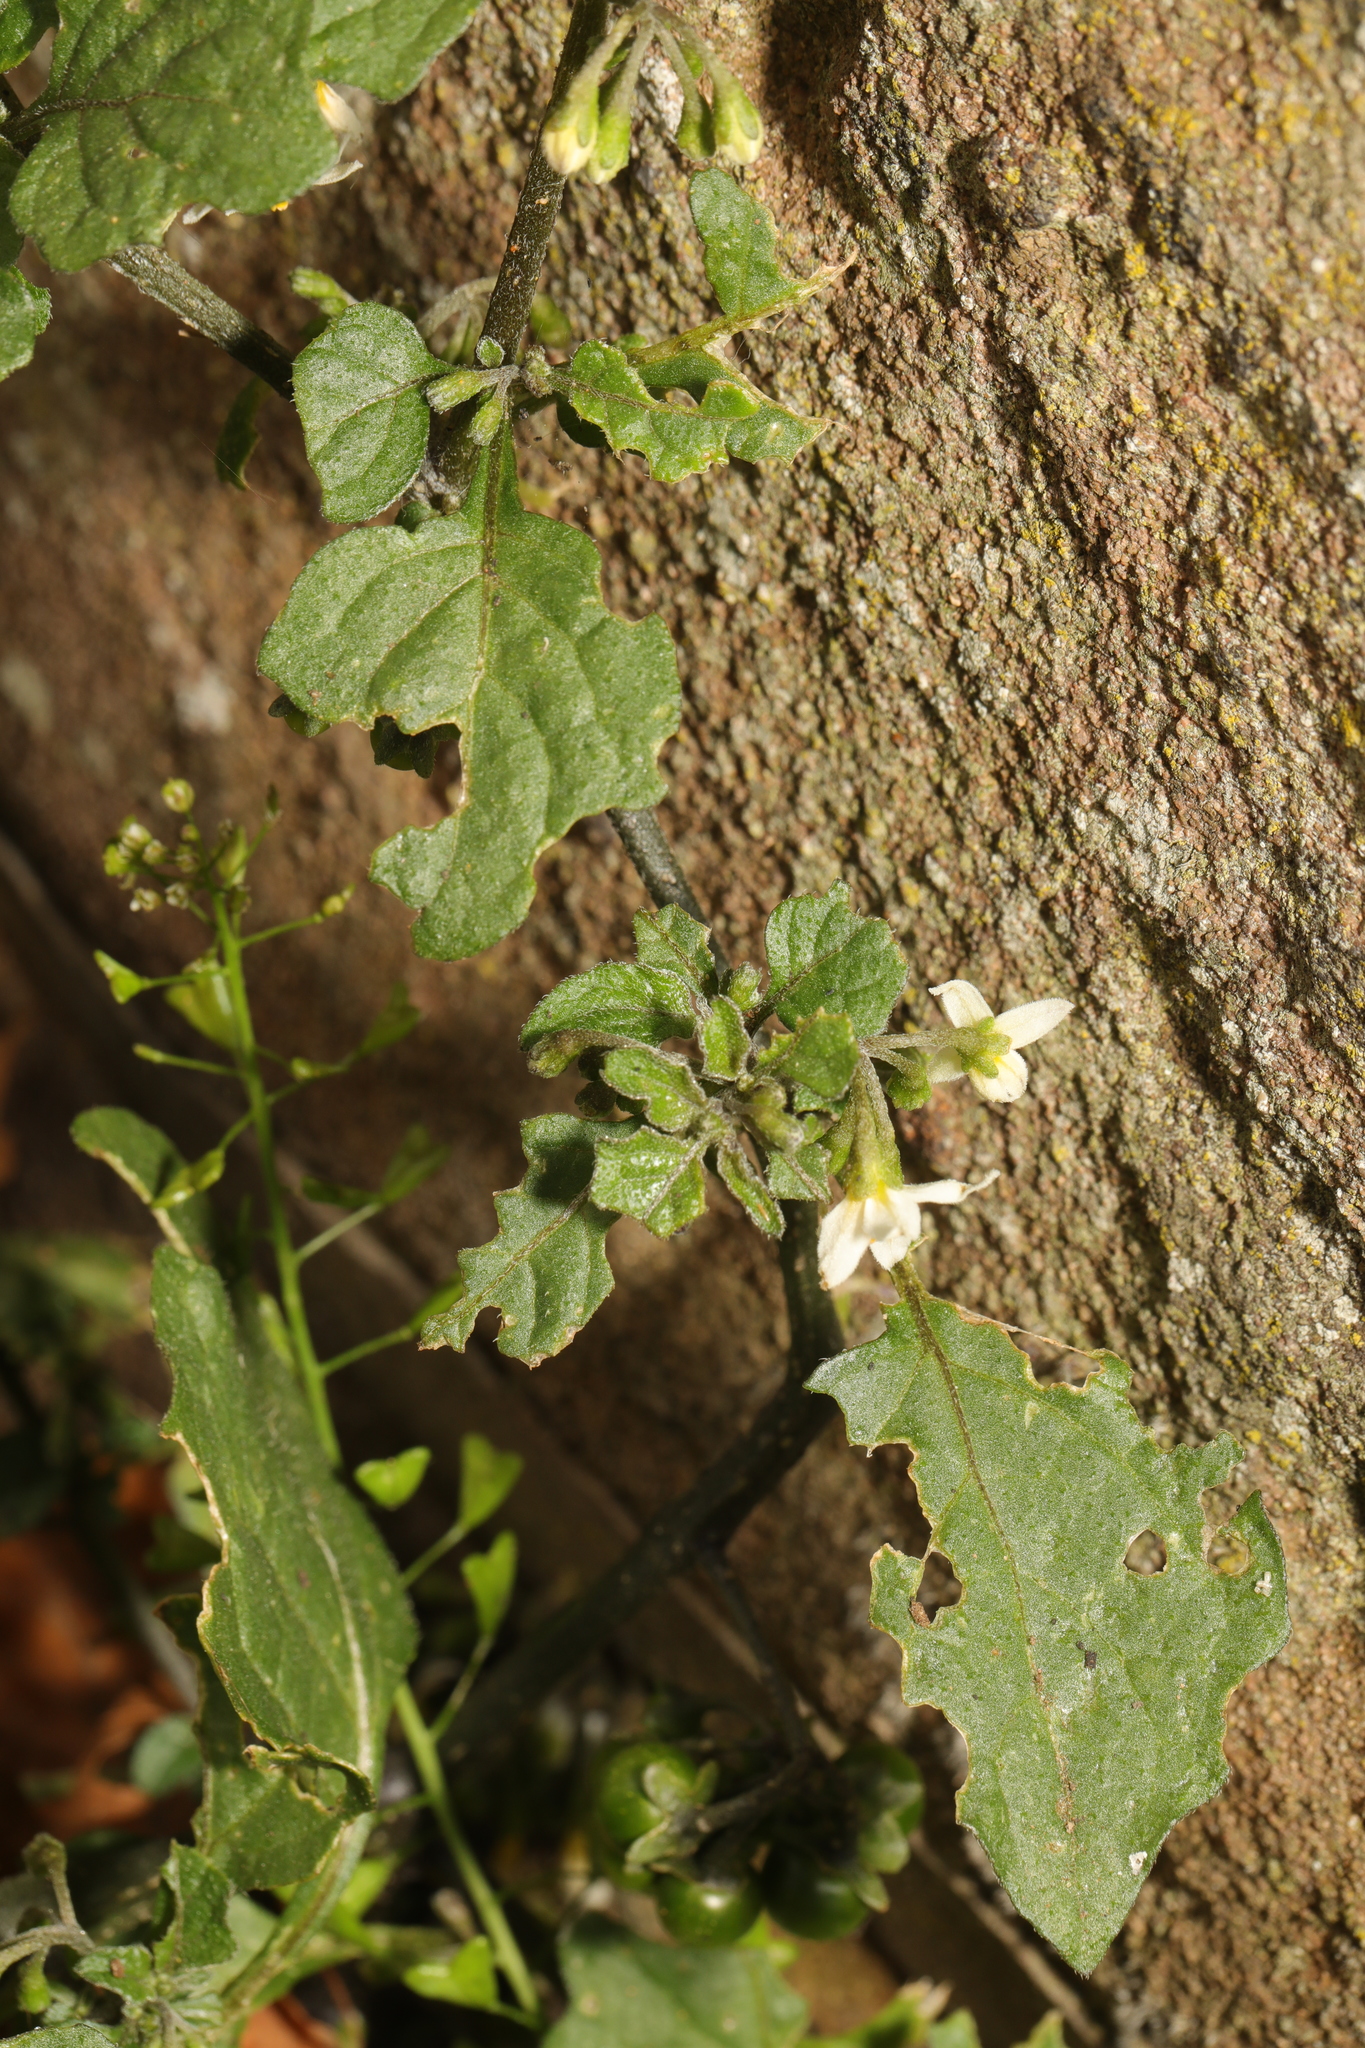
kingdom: Plantae
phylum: Tracheophyta
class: Magnoliopsida
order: Solanales
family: Solanaceae
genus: Solanum
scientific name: Solanum nigrum
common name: Black nightshade
